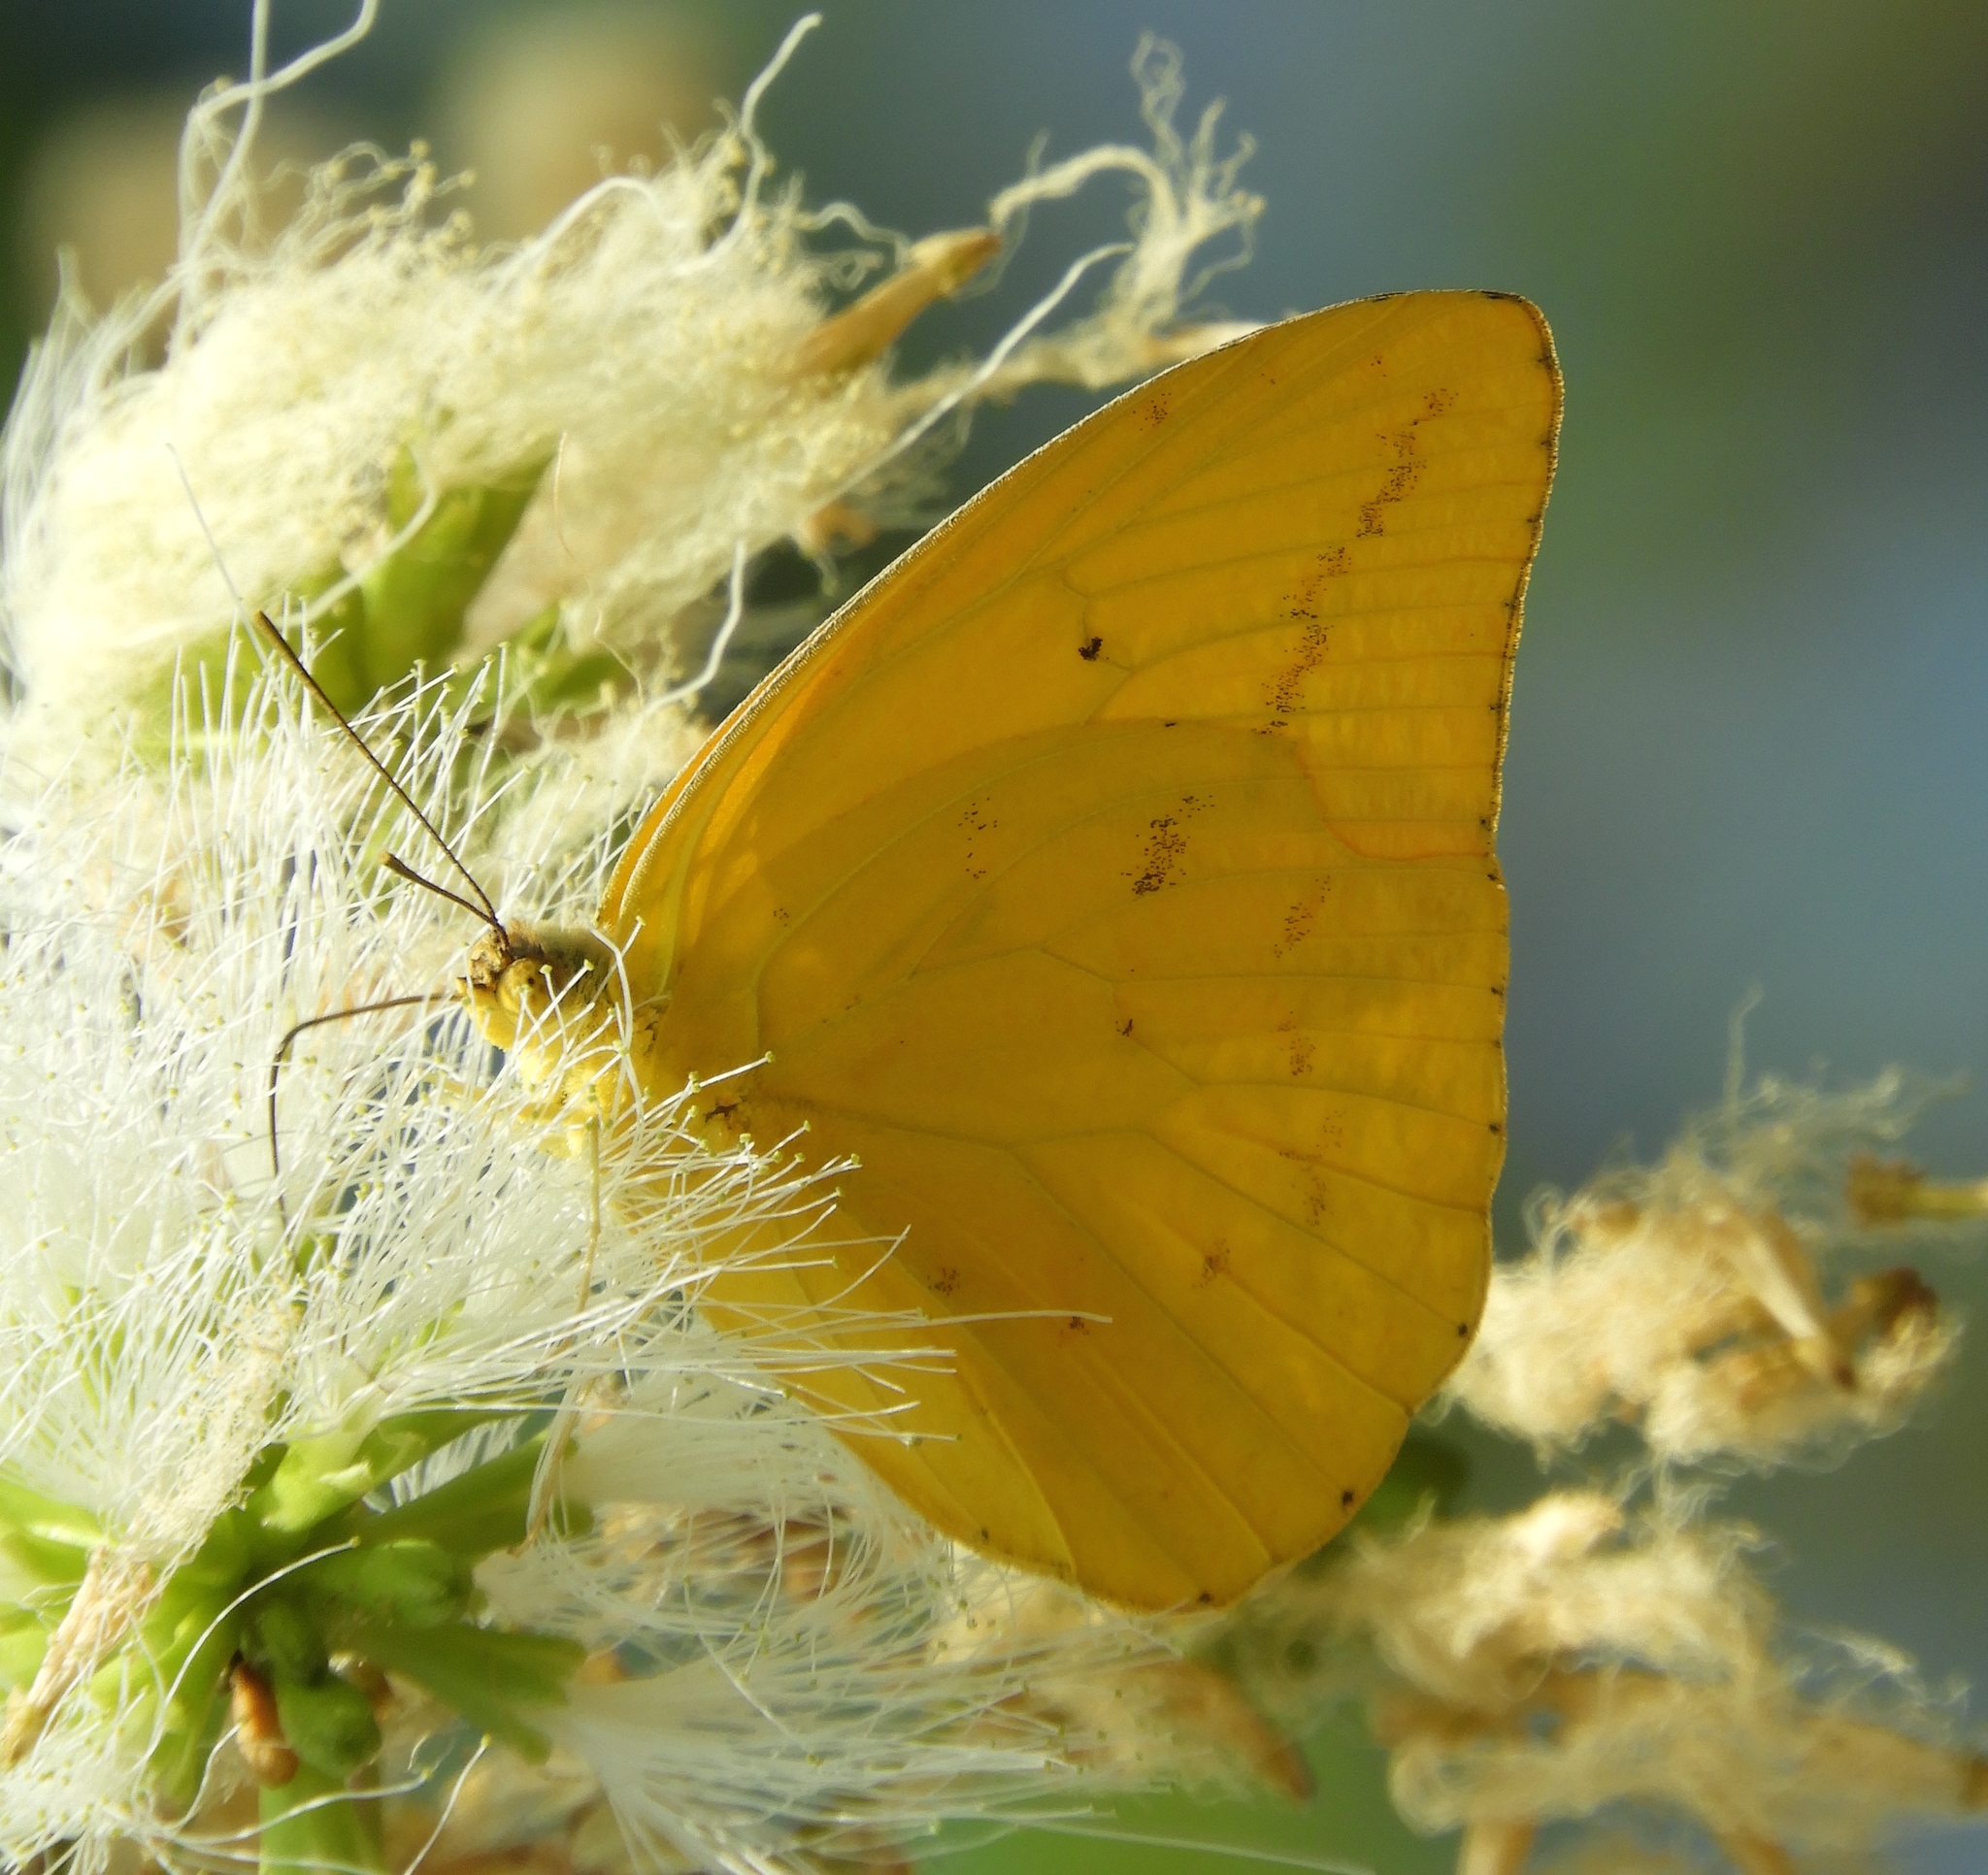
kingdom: Animalia
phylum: Arthropoda
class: Insecta
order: Lepidoptera
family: Pieridae
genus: Phoebis
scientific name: Phoebis agarithe
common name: Large orange sulphur
